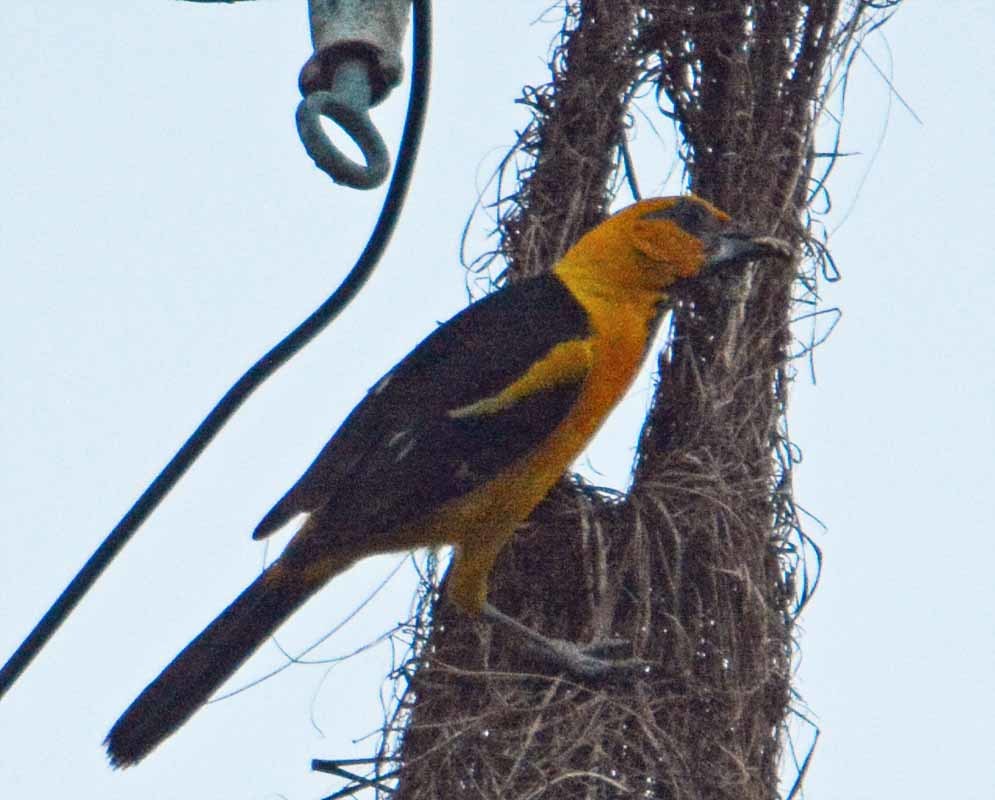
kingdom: Animalia
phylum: Chordata
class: Aves
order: Passeriformes
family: Icteridae
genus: Icterus
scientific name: Icterus gularis
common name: Altamira oriole
